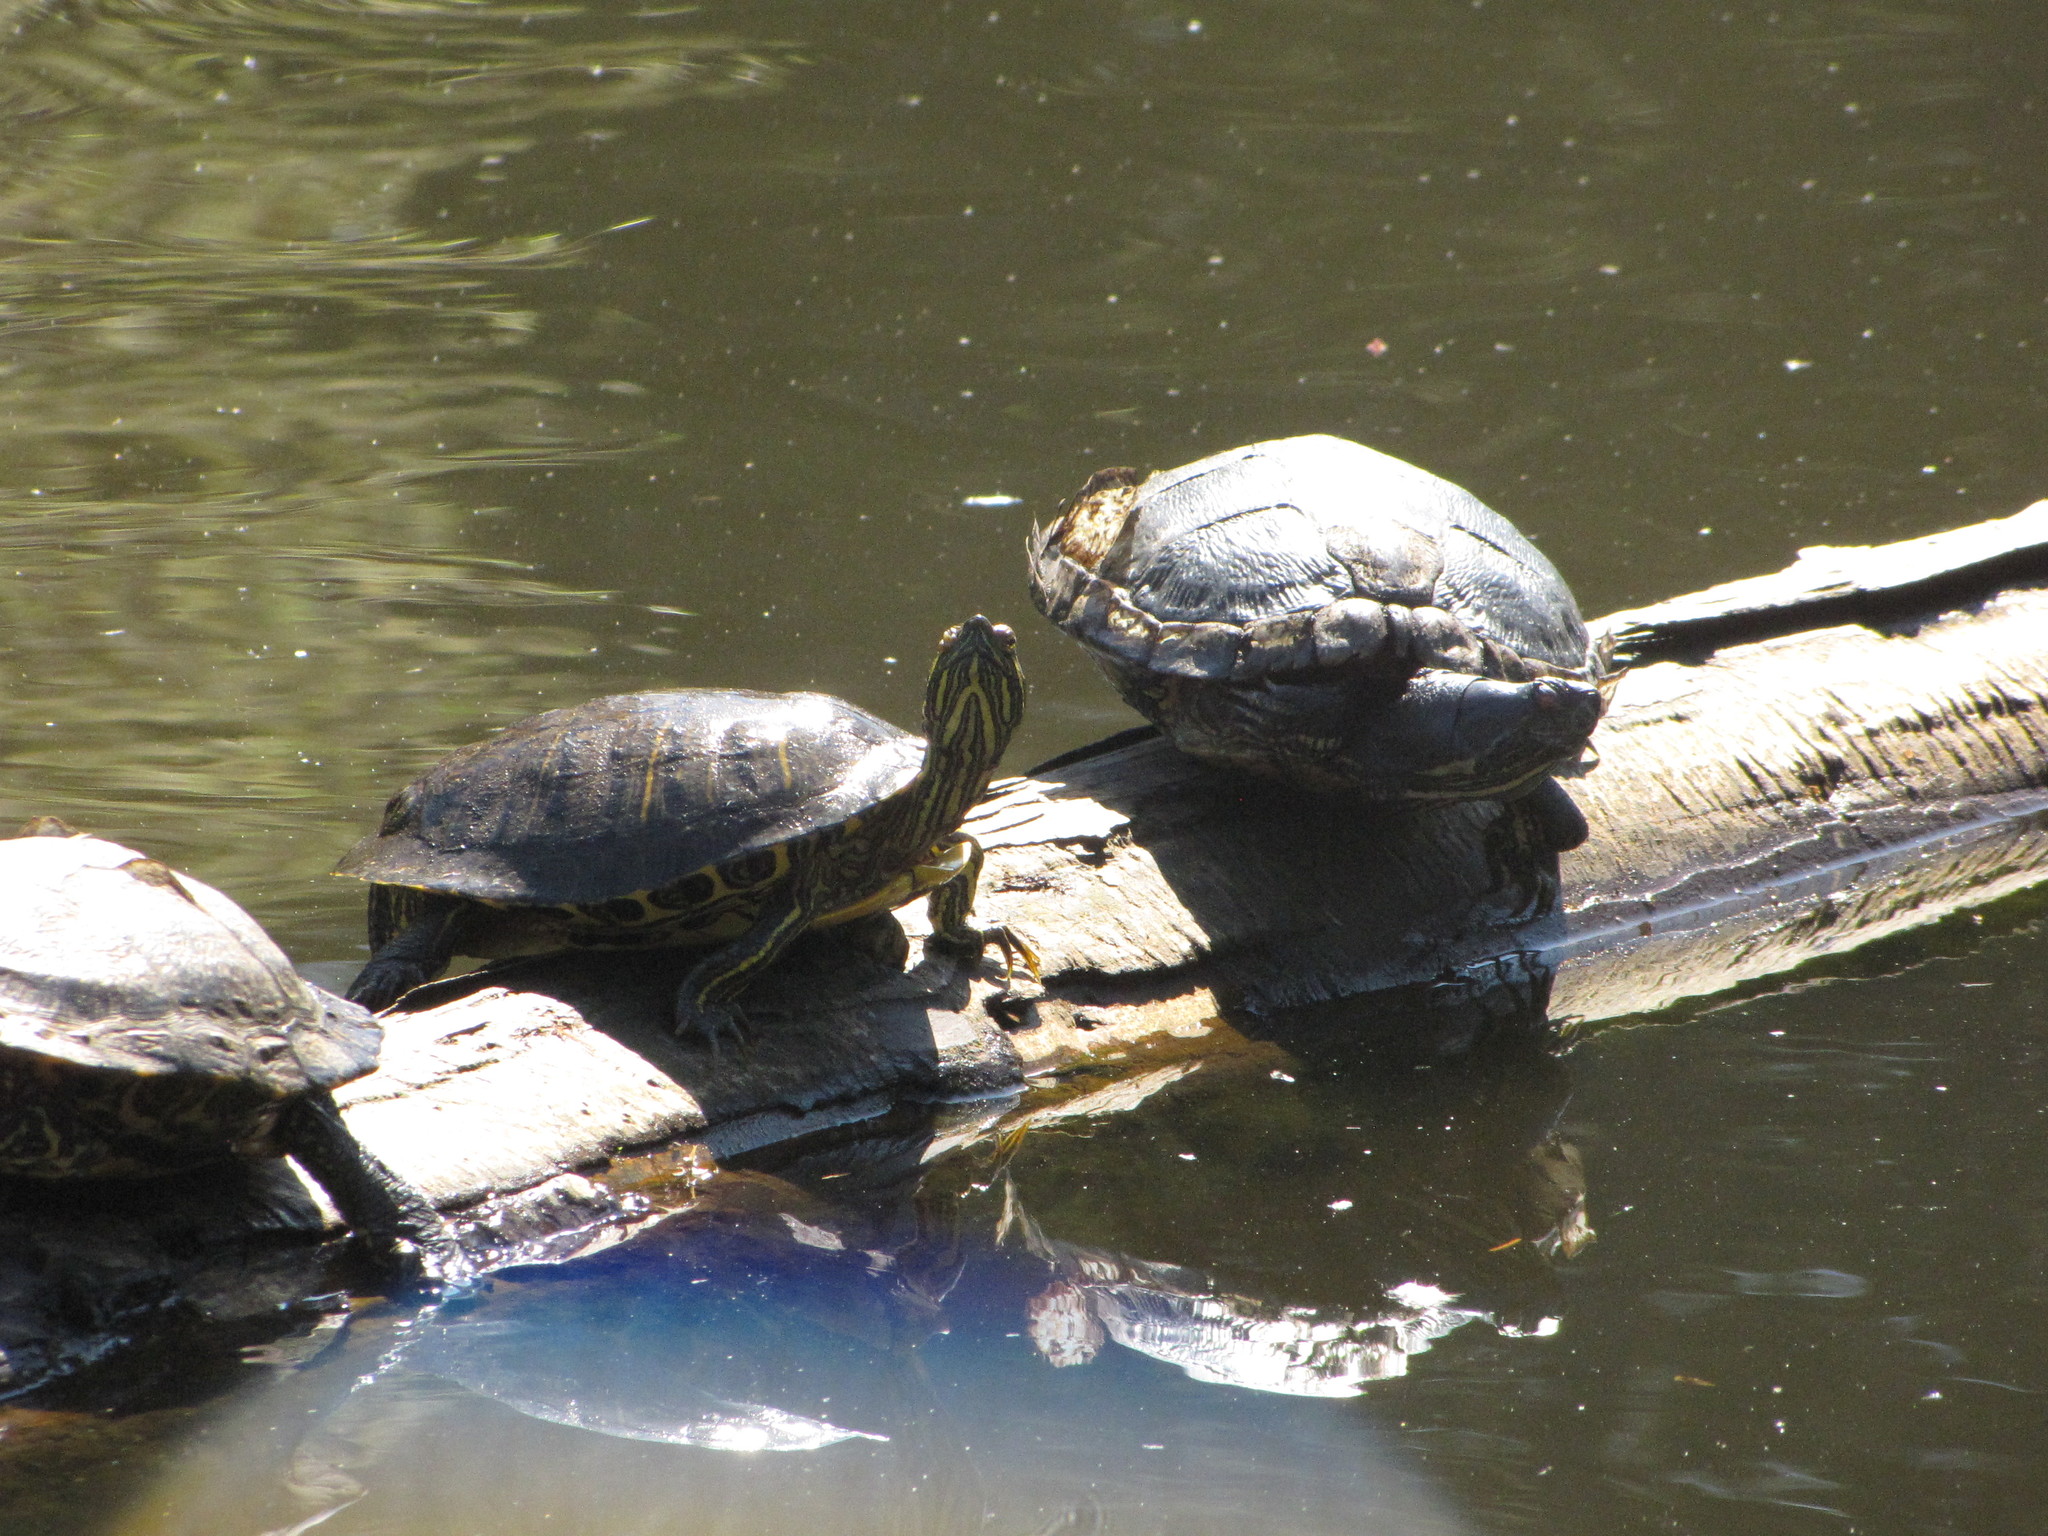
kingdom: Animalia
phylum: Chordata
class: Testudines
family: Emydidae
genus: Trachemys
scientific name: Trachemys scripta
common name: Slider
